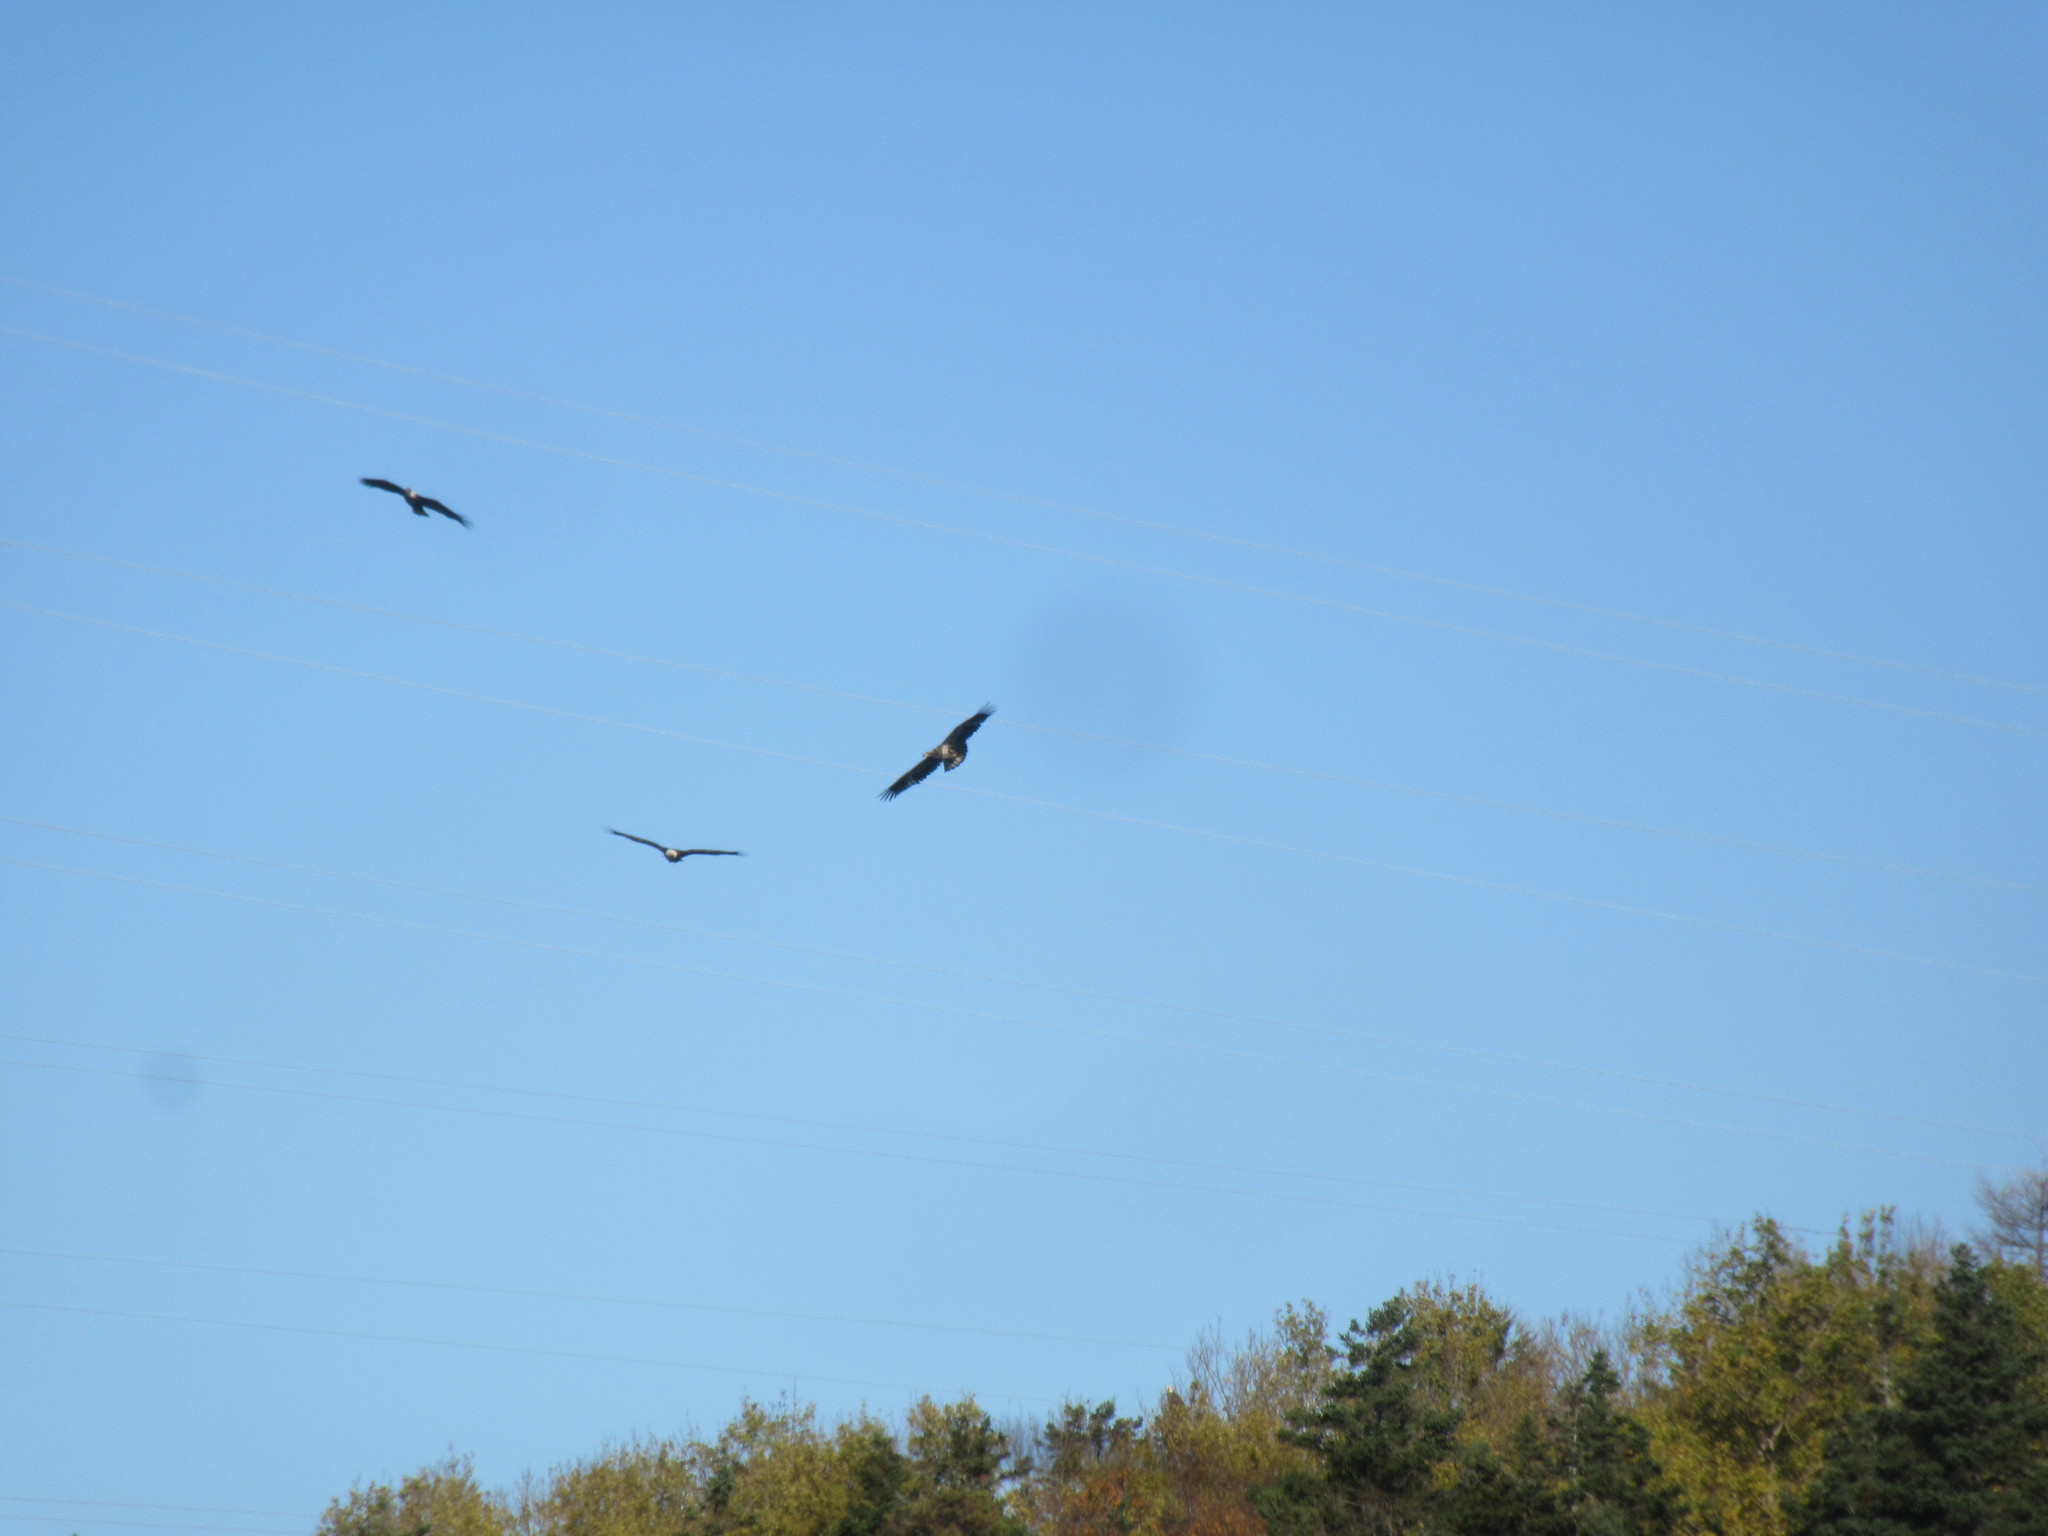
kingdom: Animalia
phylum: Chordata
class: Aves
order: Accipitriformes
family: Accipitridae
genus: Haliaeetus
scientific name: Haliaeetus leucocephalus
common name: Bald eagle
